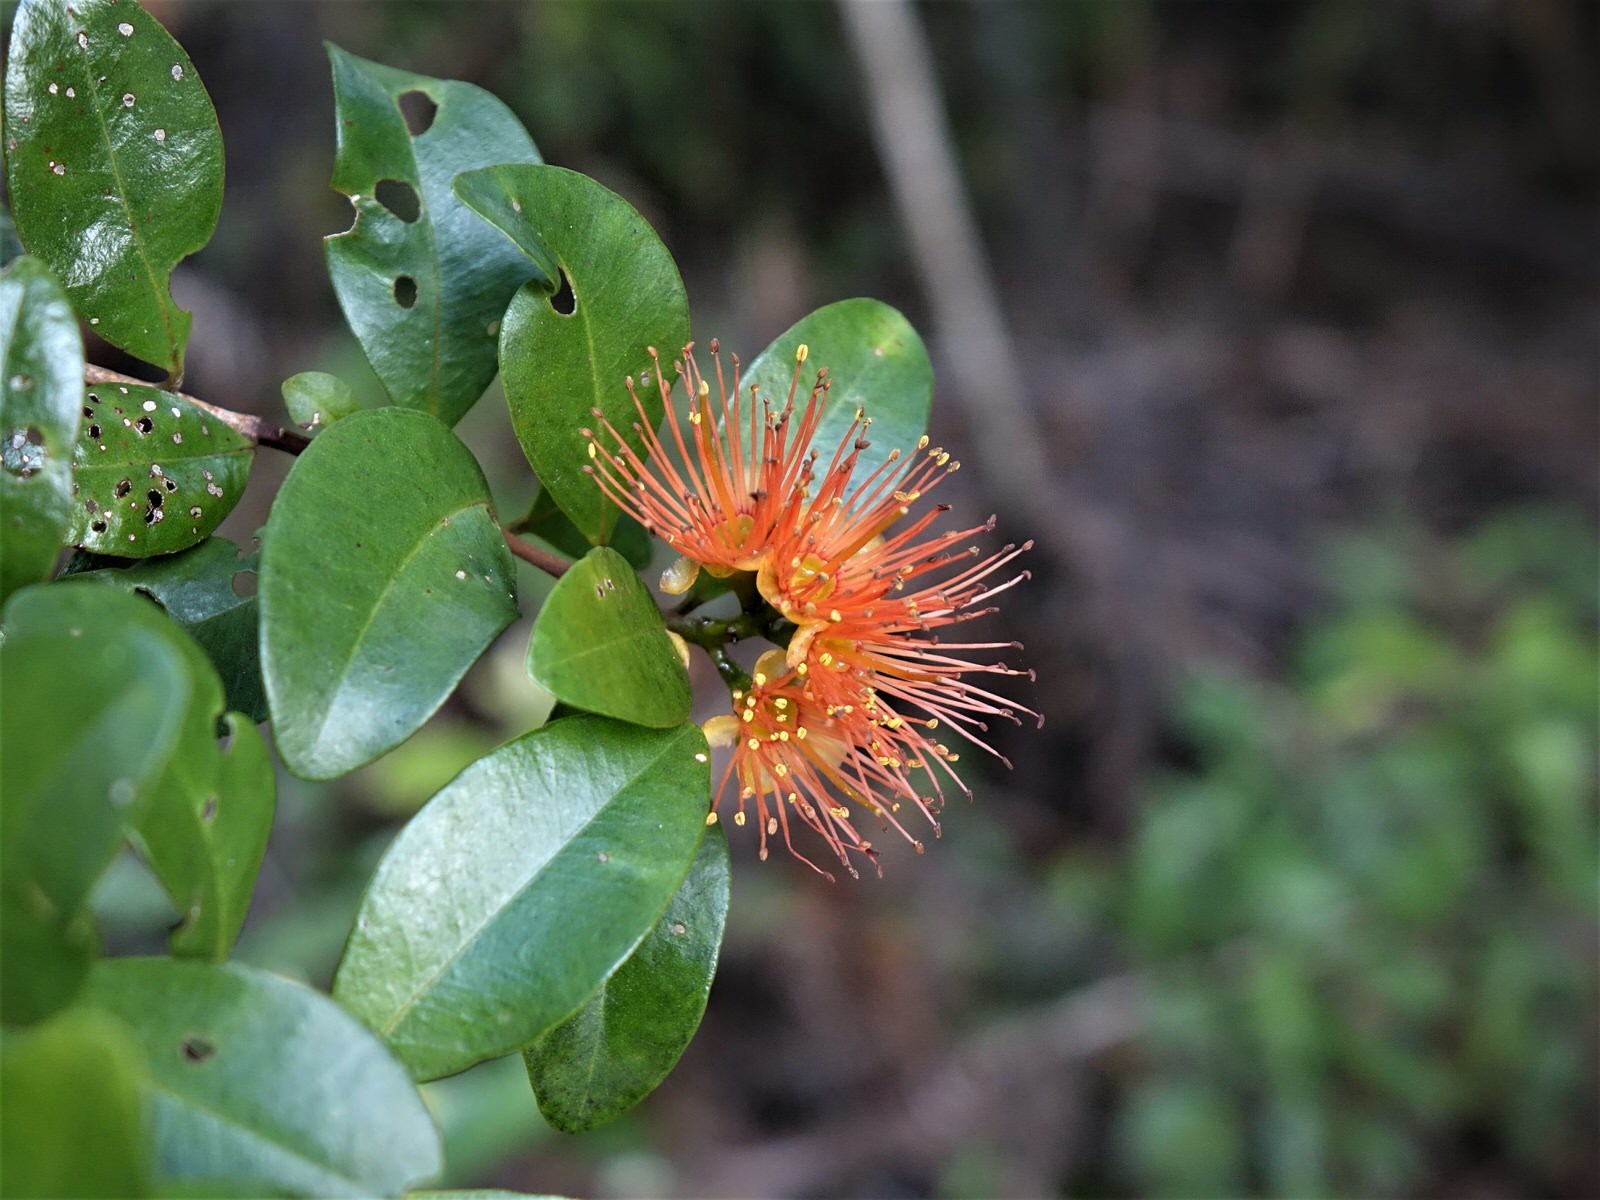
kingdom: Plantae
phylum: Tracheophyta
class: Magnoliopsida
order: Myrtales
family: Myrtaceae
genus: Metrosideros
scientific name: Metrosideros fulgens
